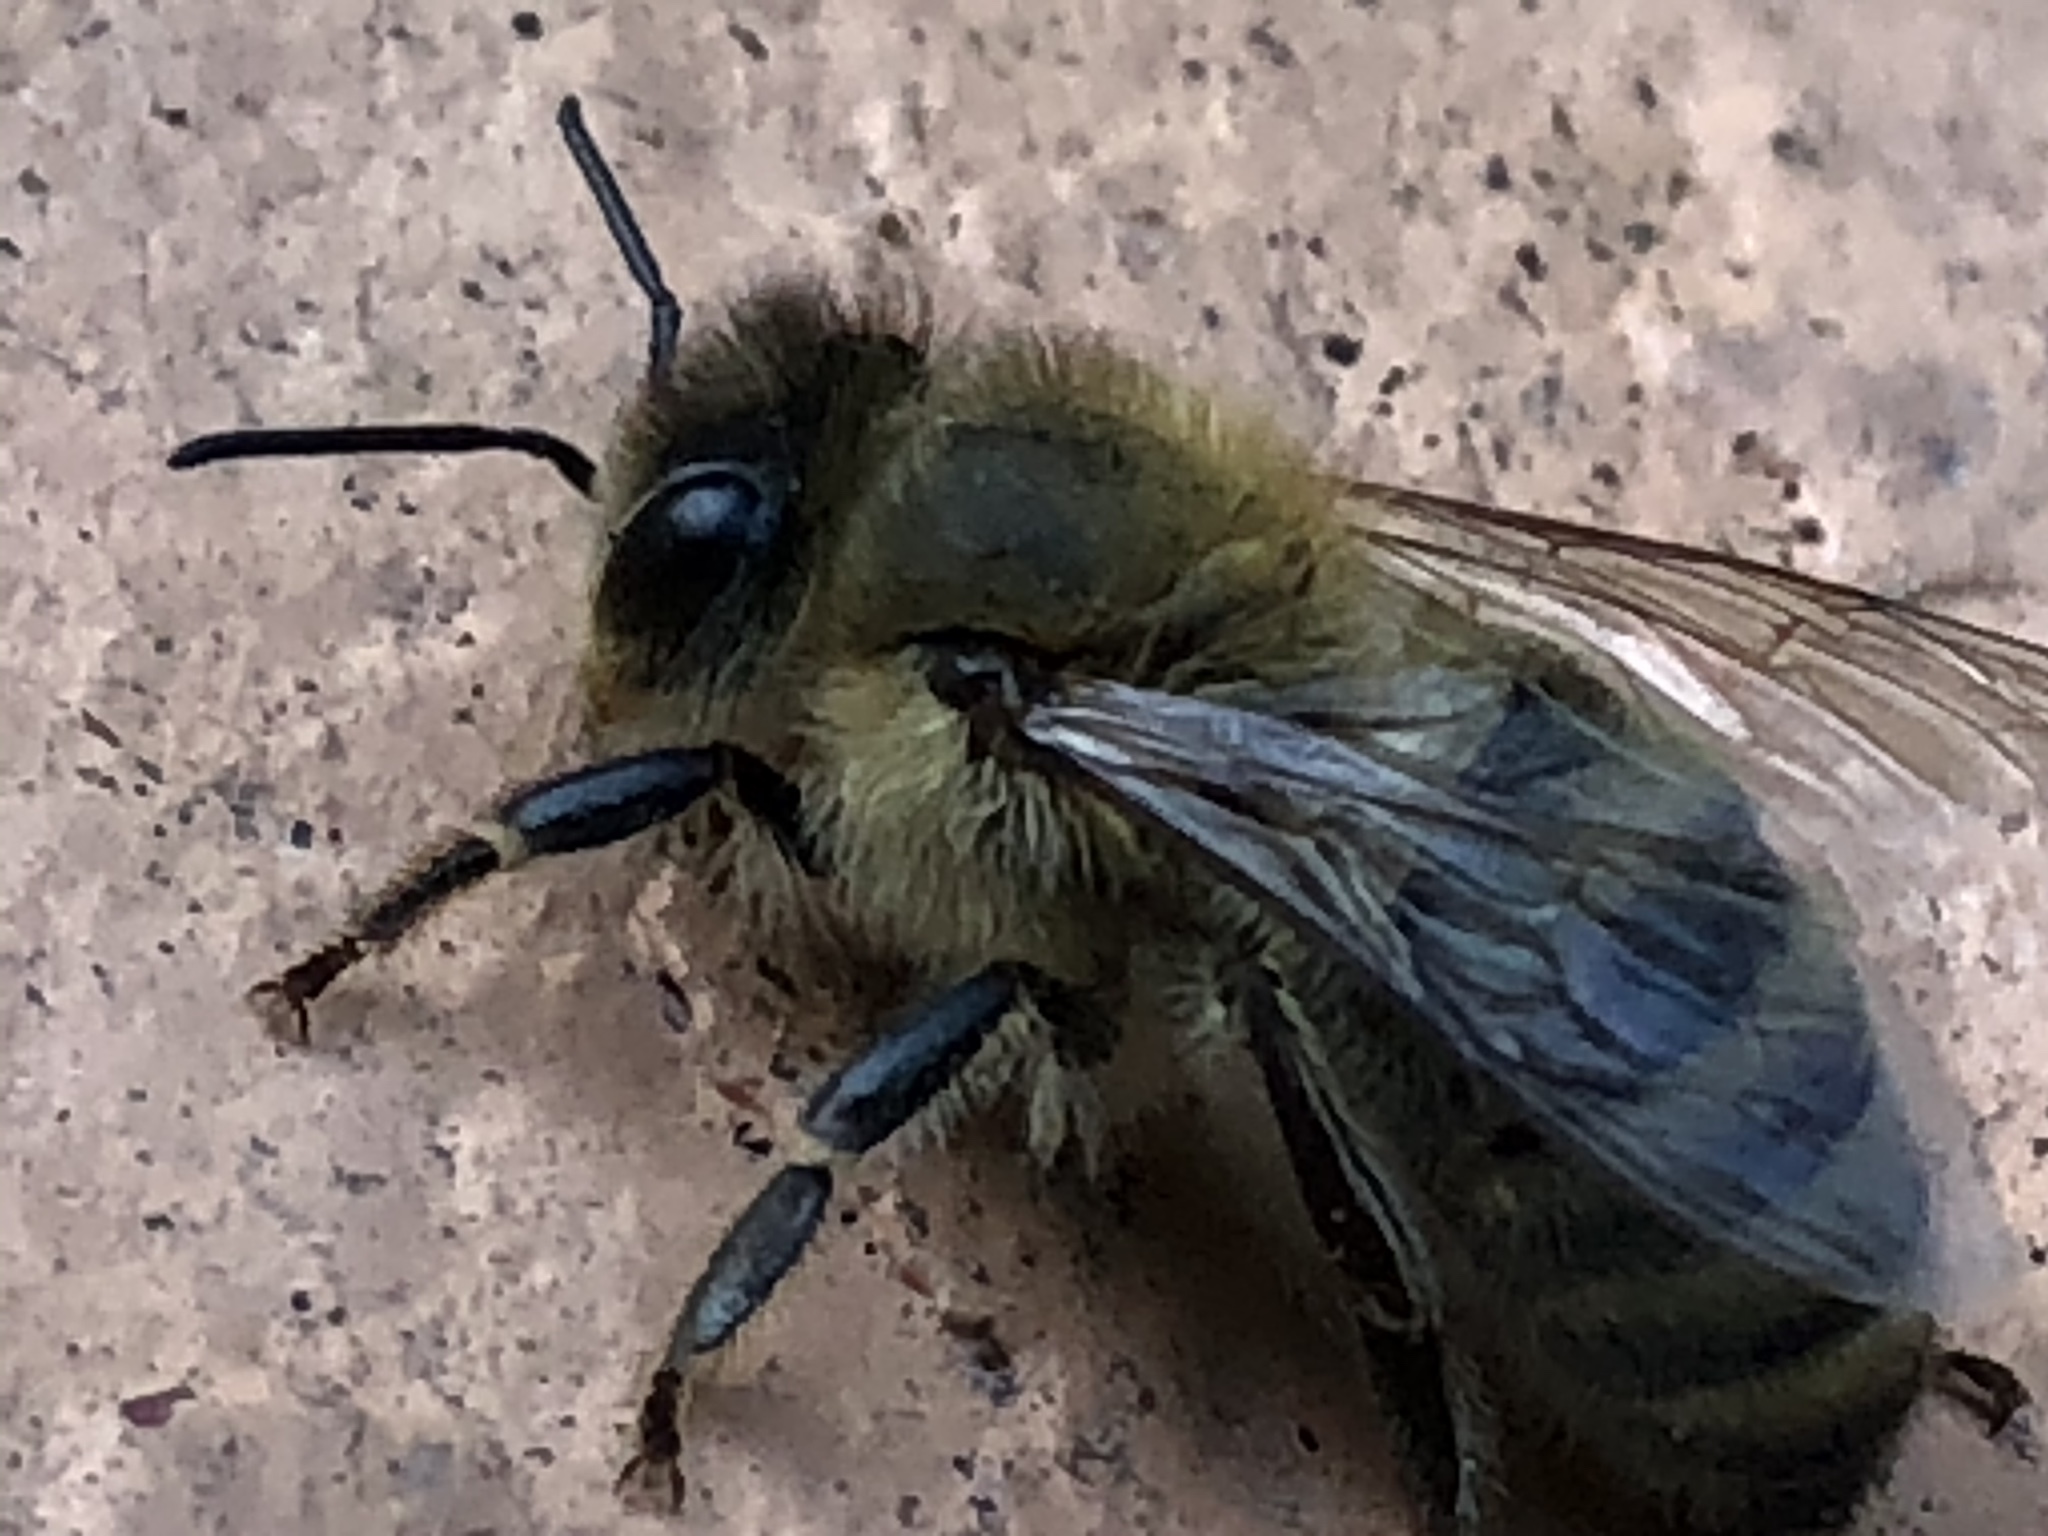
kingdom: Animalia
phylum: Arthropoda
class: Insecta
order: Hymenoptera
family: Apidae
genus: Apis
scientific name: Apis mellifera
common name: Honey bee
